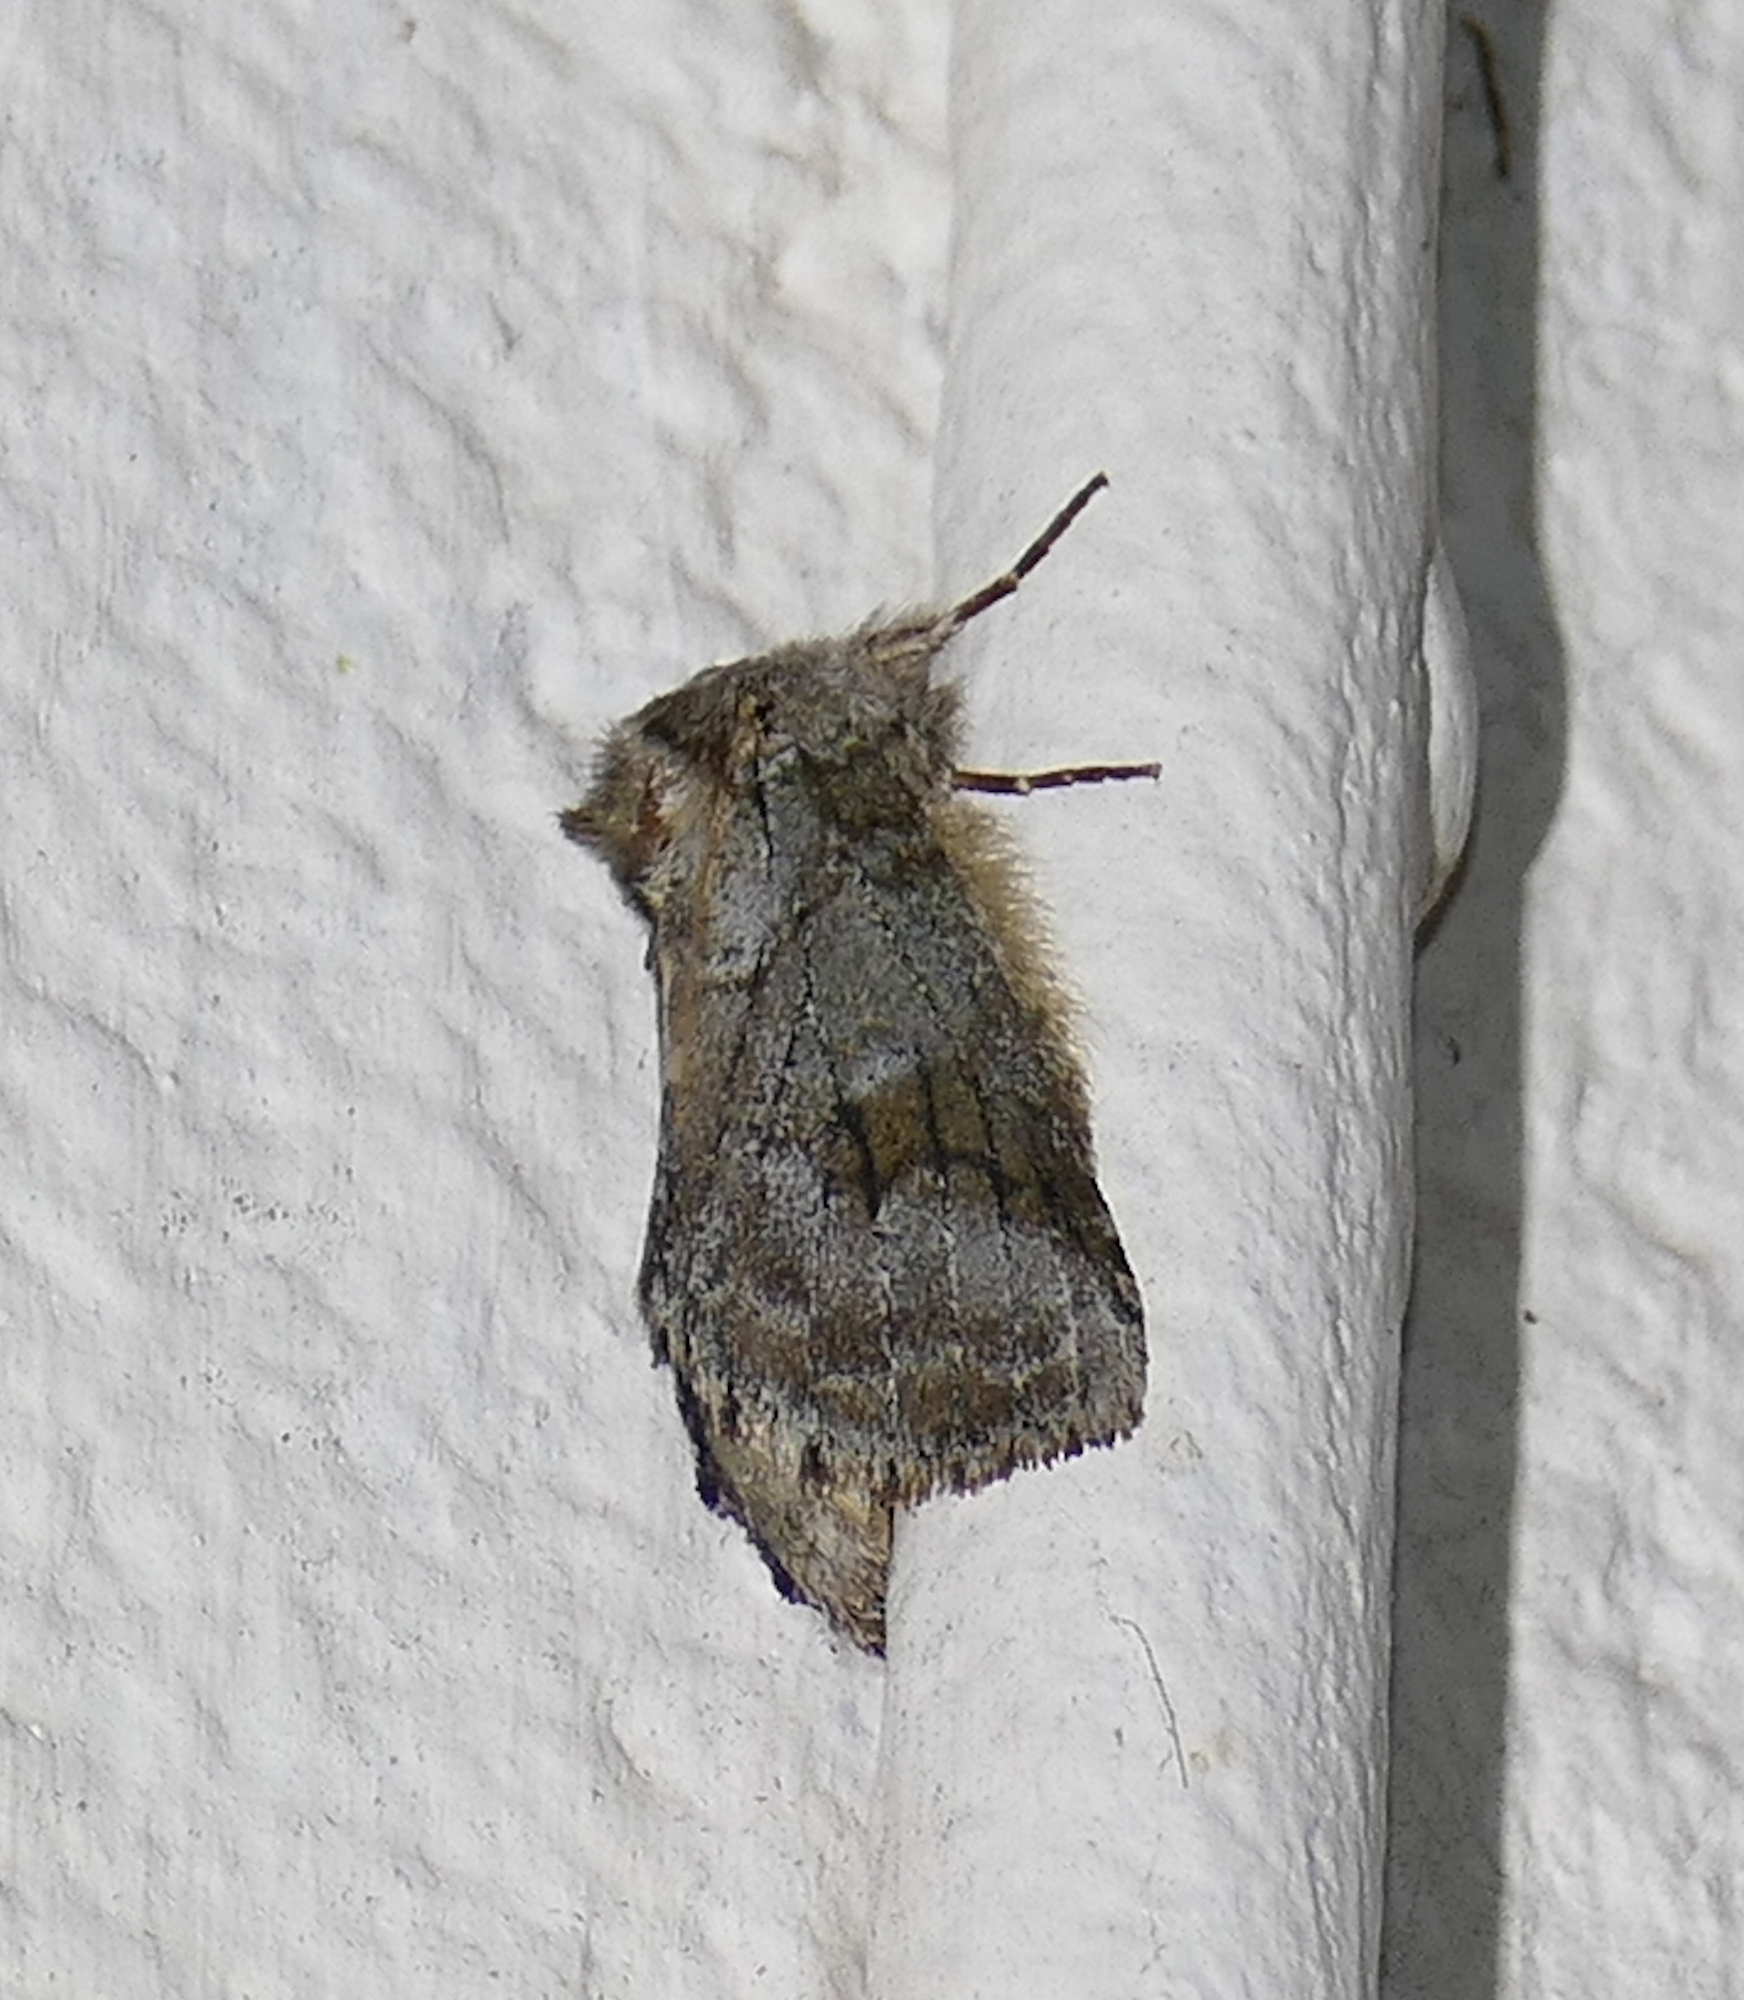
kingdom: Animalia
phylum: Arthropoda
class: Insecta
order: Lepidoptera
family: Notodontidae
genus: Lochmaeus
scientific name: Lochmaeus bilineata
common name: Double-lined prominent
